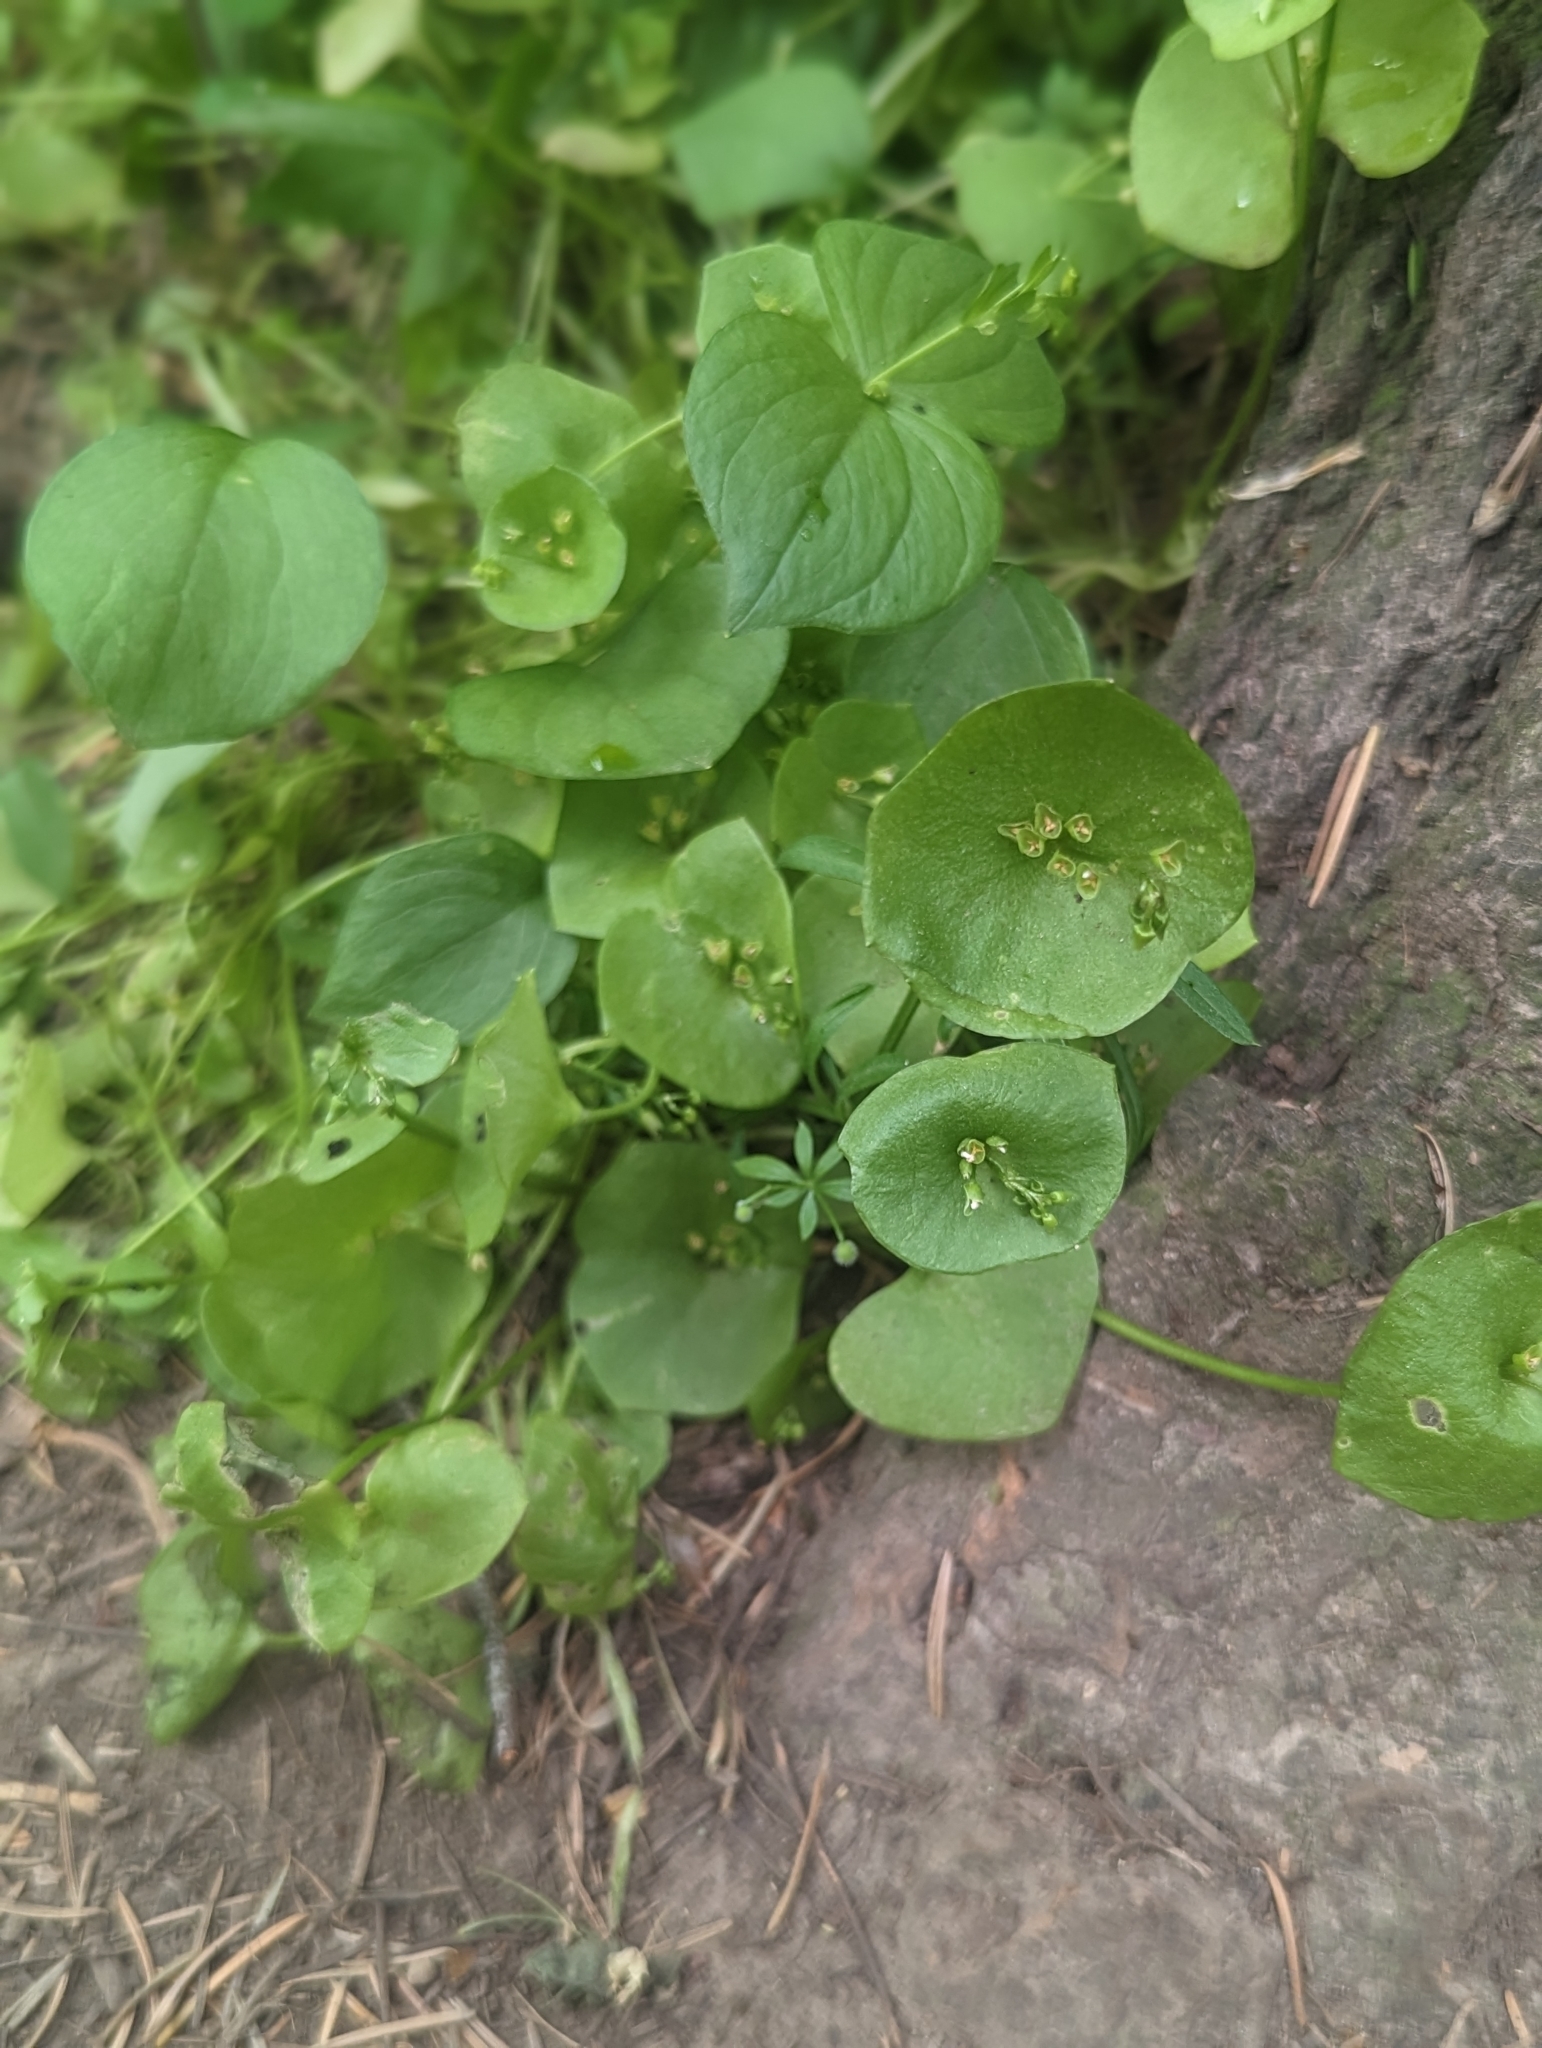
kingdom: Plantae
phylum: Tracheophyta
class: Magnoliopsida
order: Caryophyllales
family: Montiaceae
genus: Claytonia
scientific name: Claytonia perfoliata
